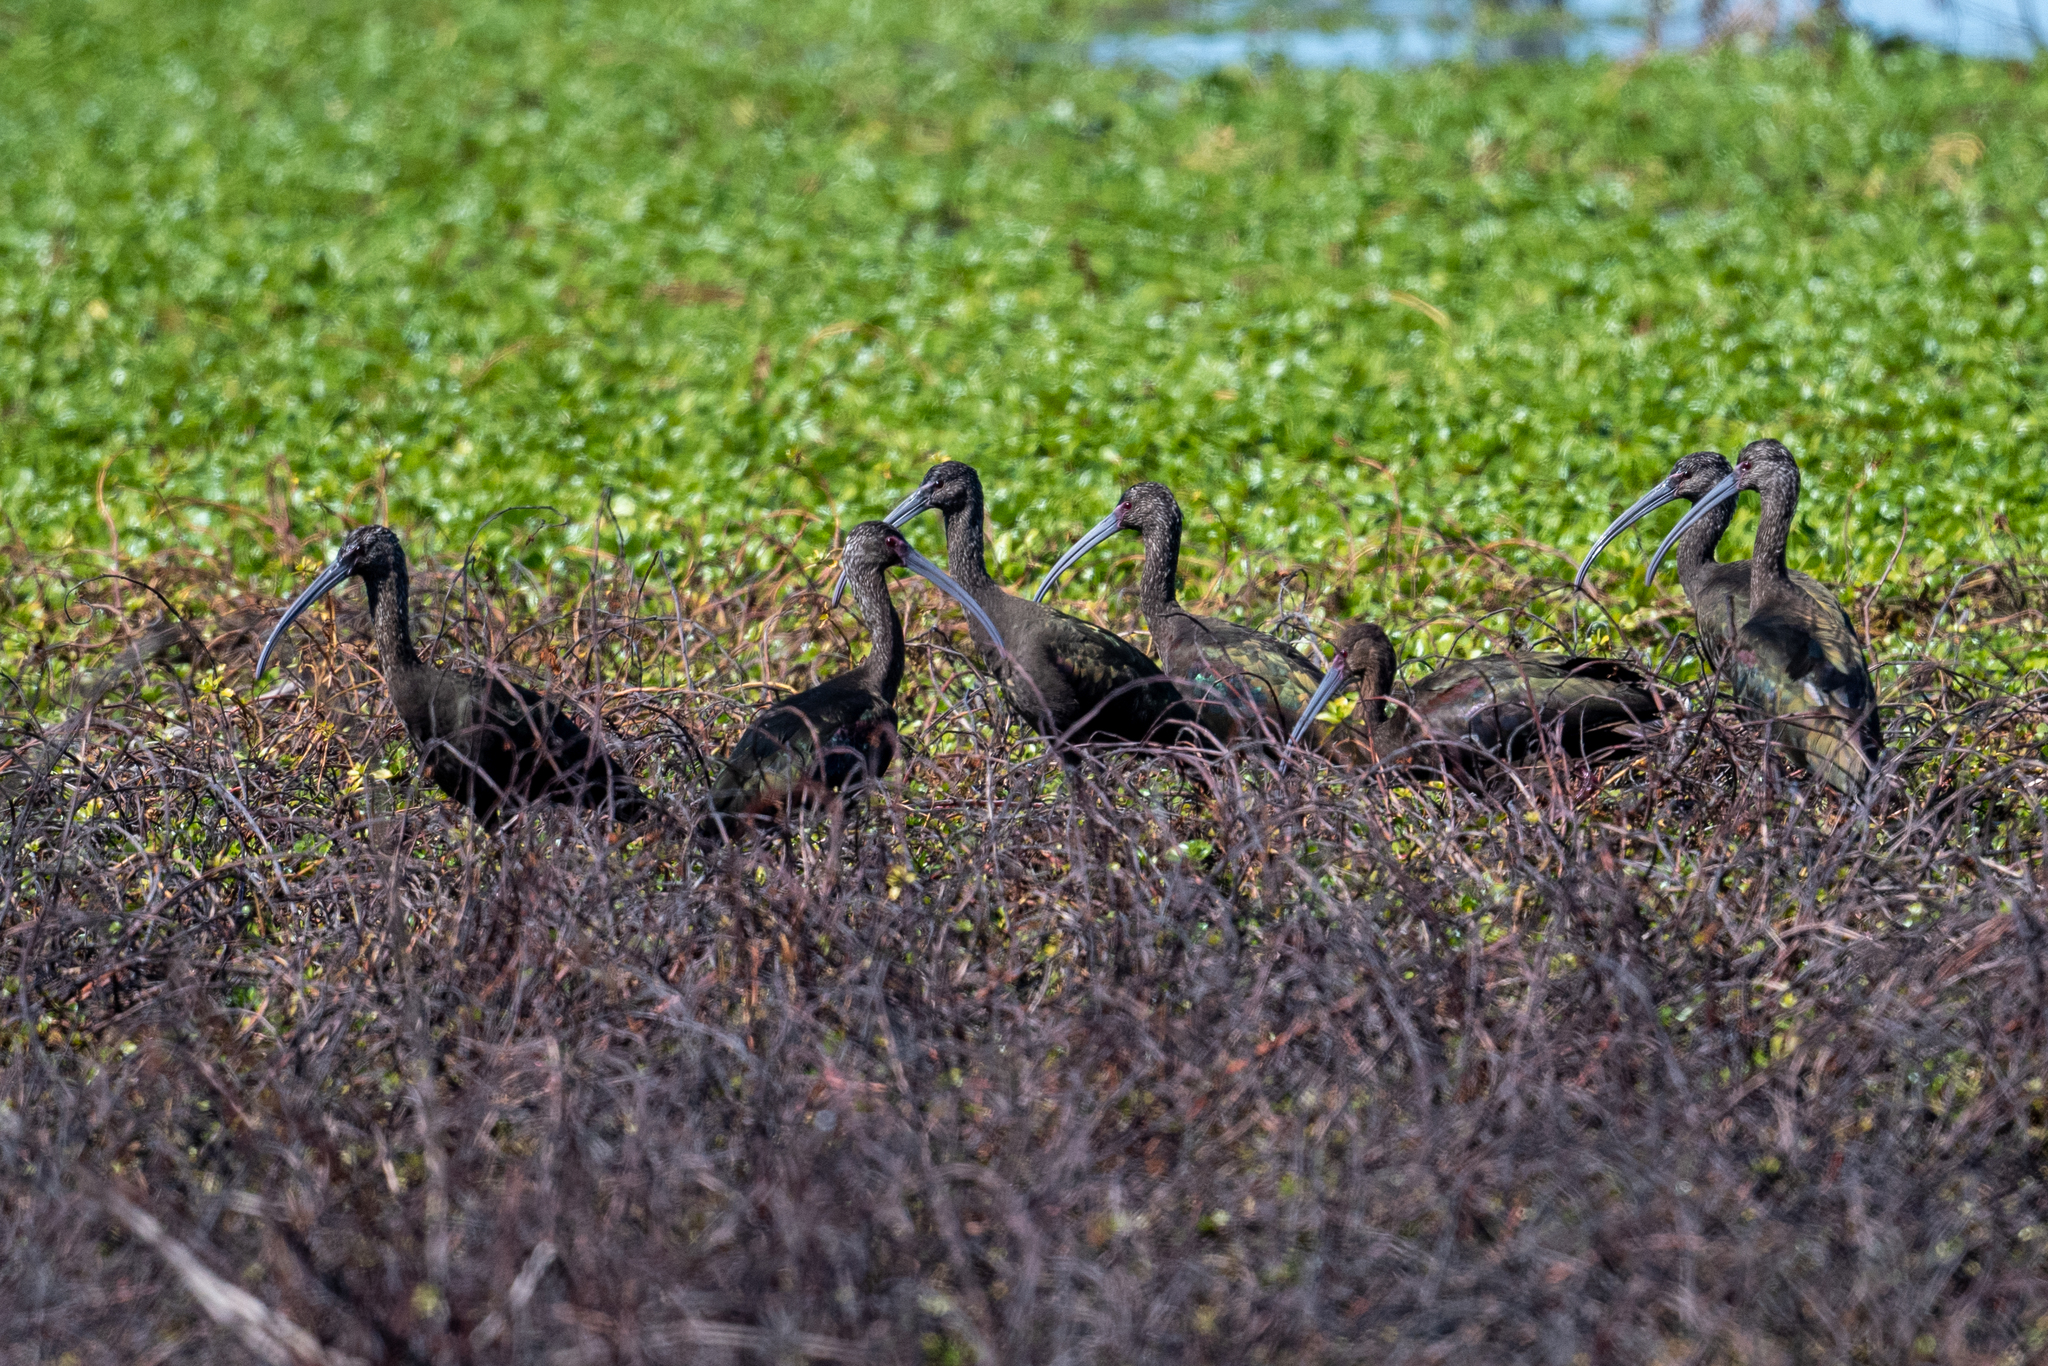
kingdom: Animalia
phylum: Chordata
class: Aves
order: Pelecaniformes
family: Threskiornithidae
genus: Plegadis
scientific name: Plegadis chihi
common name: White-faced ibis
